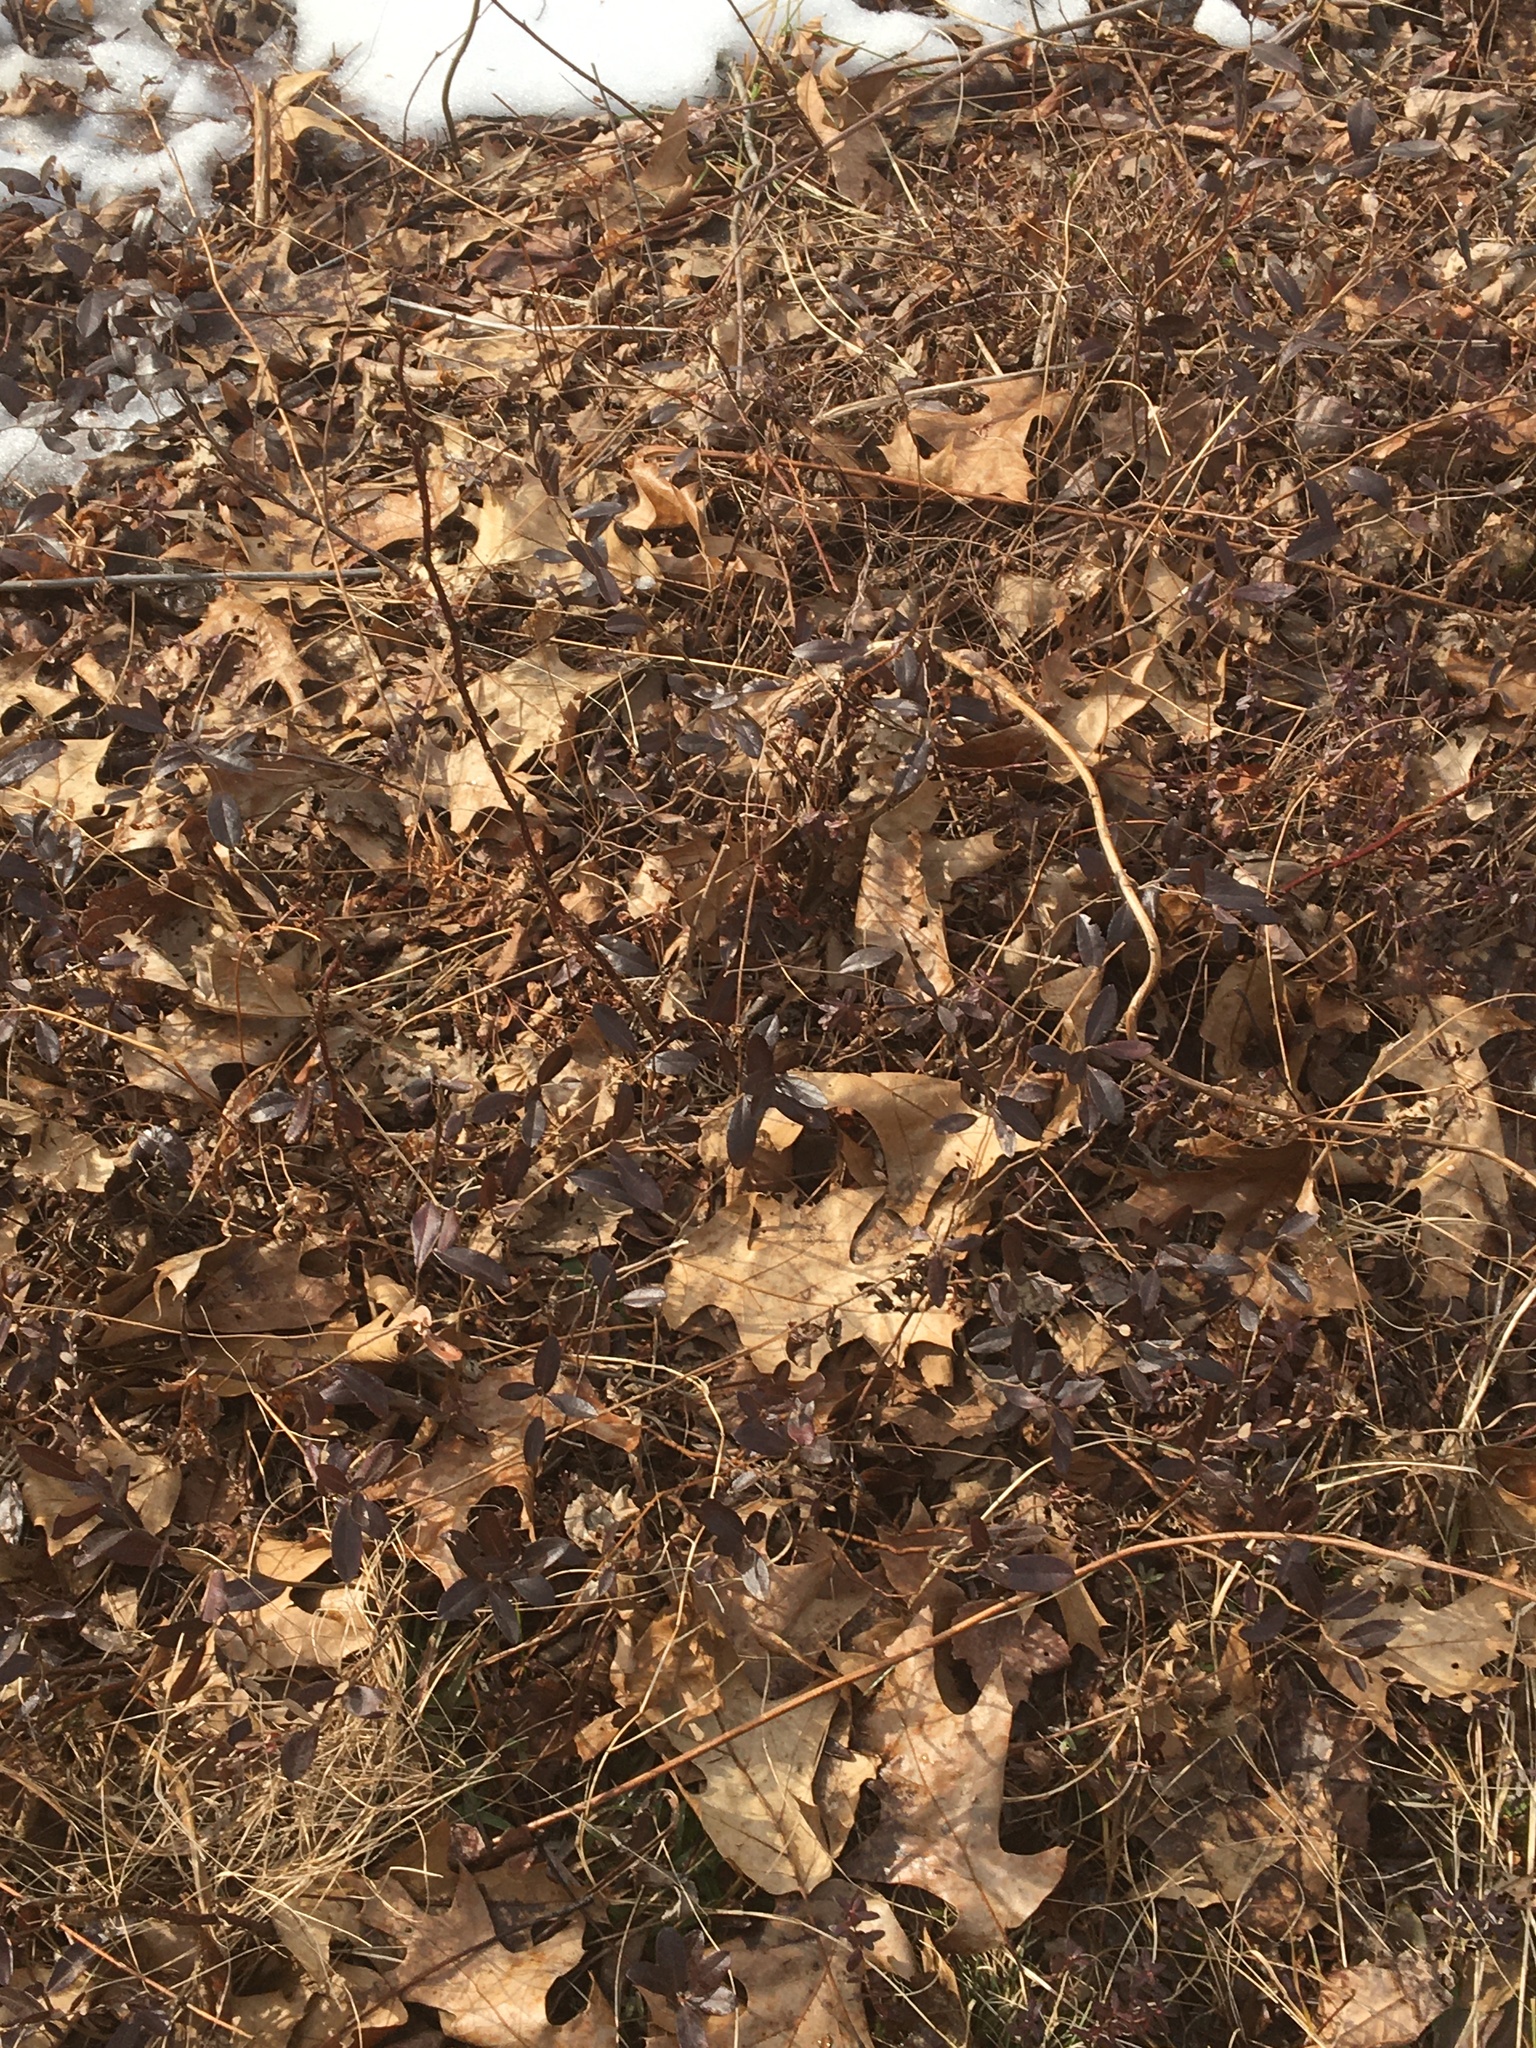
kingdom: Plantae
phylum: Tracheophyta
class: Magnoliopsida
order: Ericales
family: Ericaceae
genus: Chamaedaphne
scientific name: Chamaedaphne calyculata
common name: Leatherleaf
